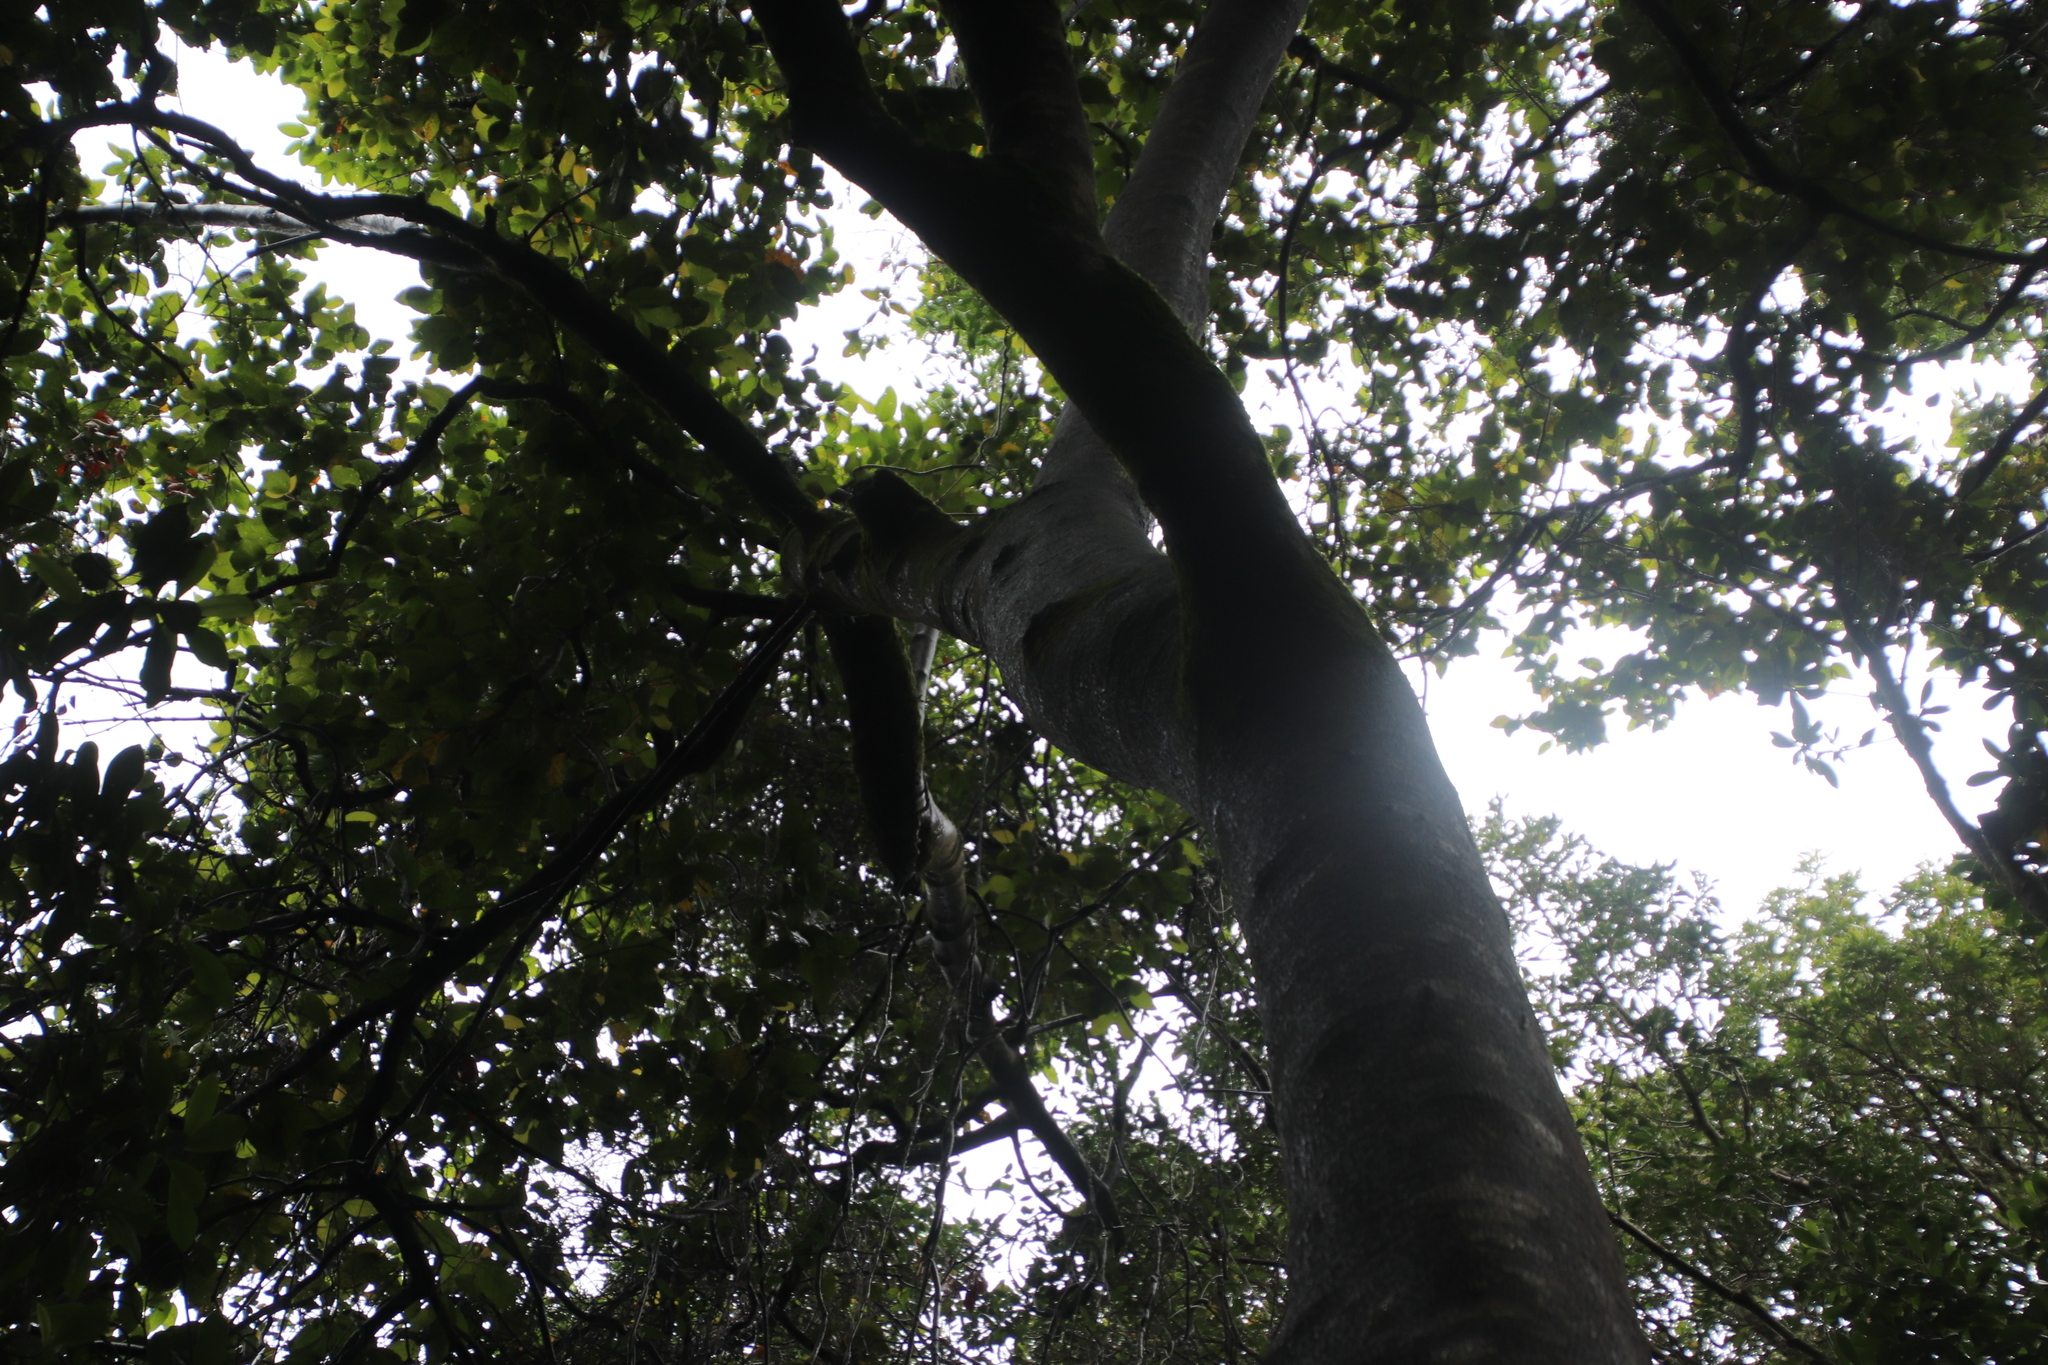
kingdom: Plantae
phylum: Tracheophyta
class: Magnoliopsida
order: Cornales
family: Curtisiaceae
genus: Curtisia
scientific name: Curtisia dentata
